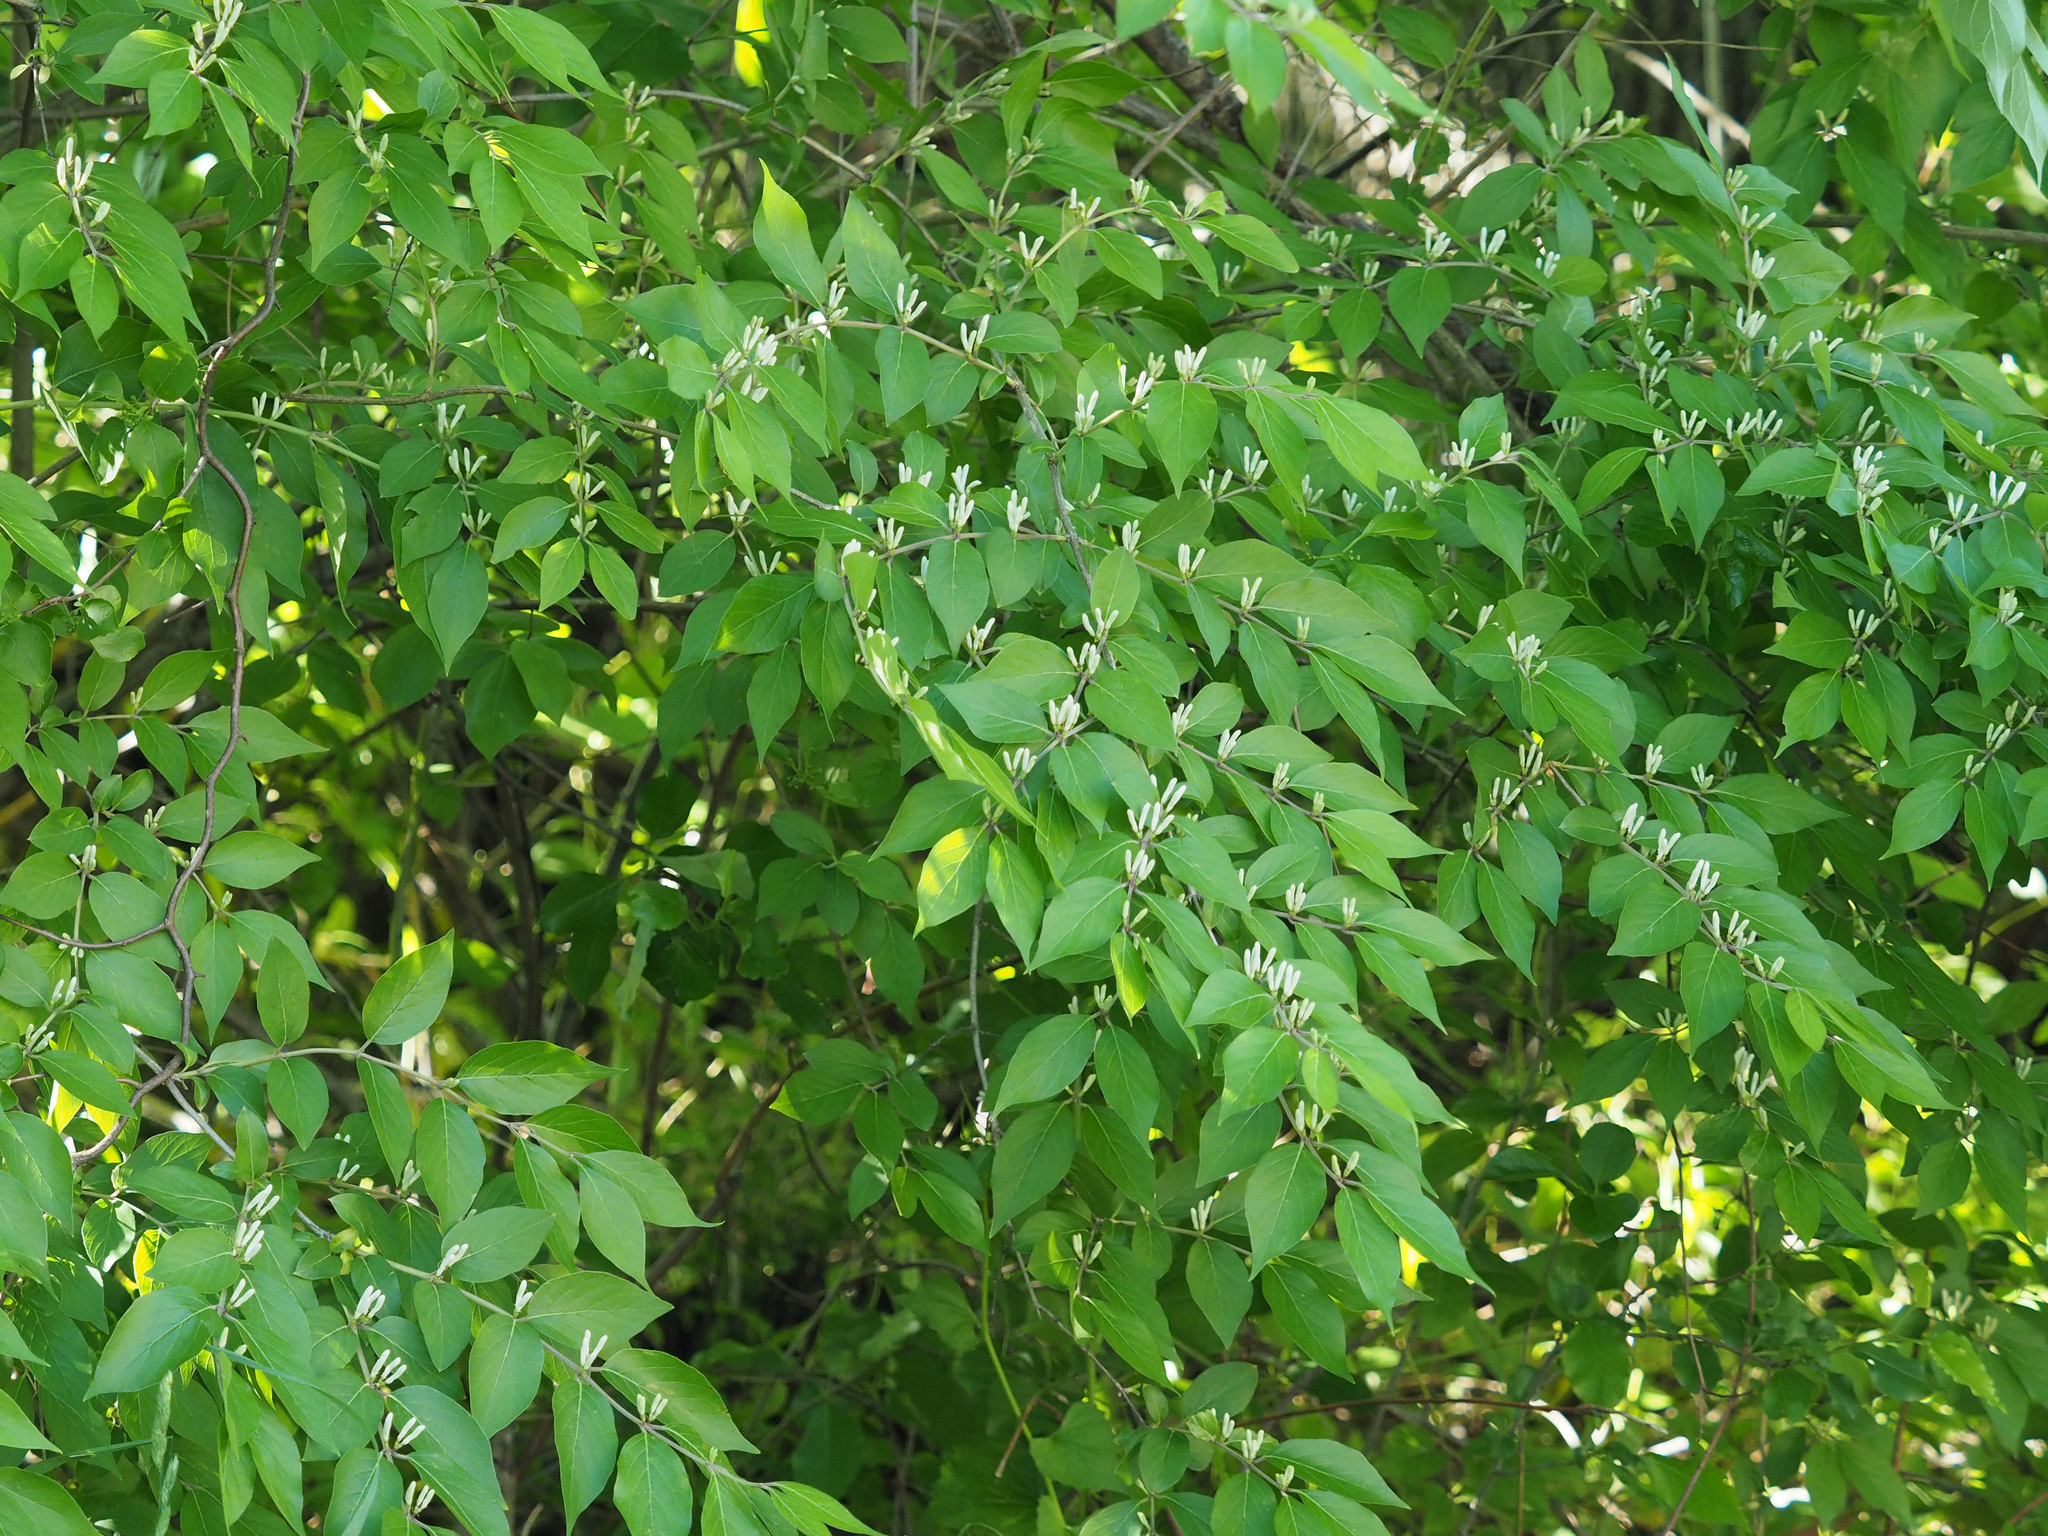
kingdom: Plantae
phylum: Tracheophyta
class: Magnoliopsida
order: Dipsacales
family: Caprifoliaceae
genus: Lonicera
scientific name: Lonicera maackii
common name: Amur honeysuckle
